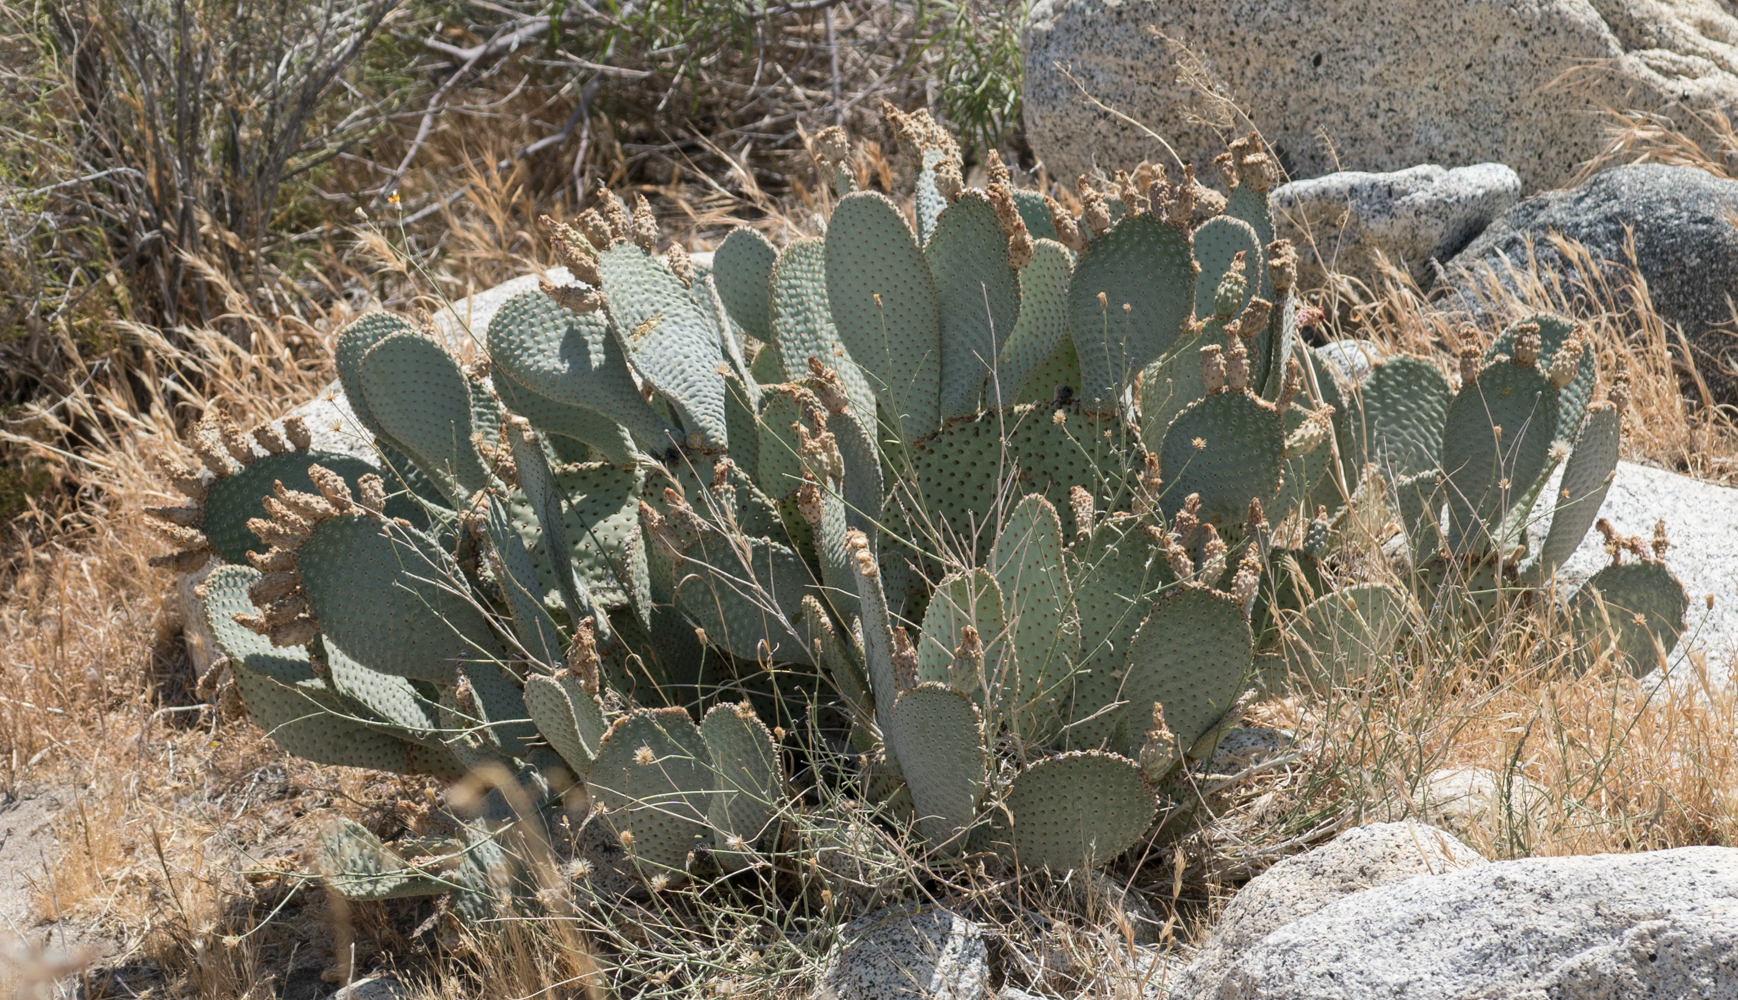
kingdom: Plantae
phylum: Tracheophyta
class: Magnoliopsida
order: Caryophyllales
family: Cactaceae
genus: Opuntia
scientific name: Opuntia basilaris
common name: Beavertail prickly-pear
